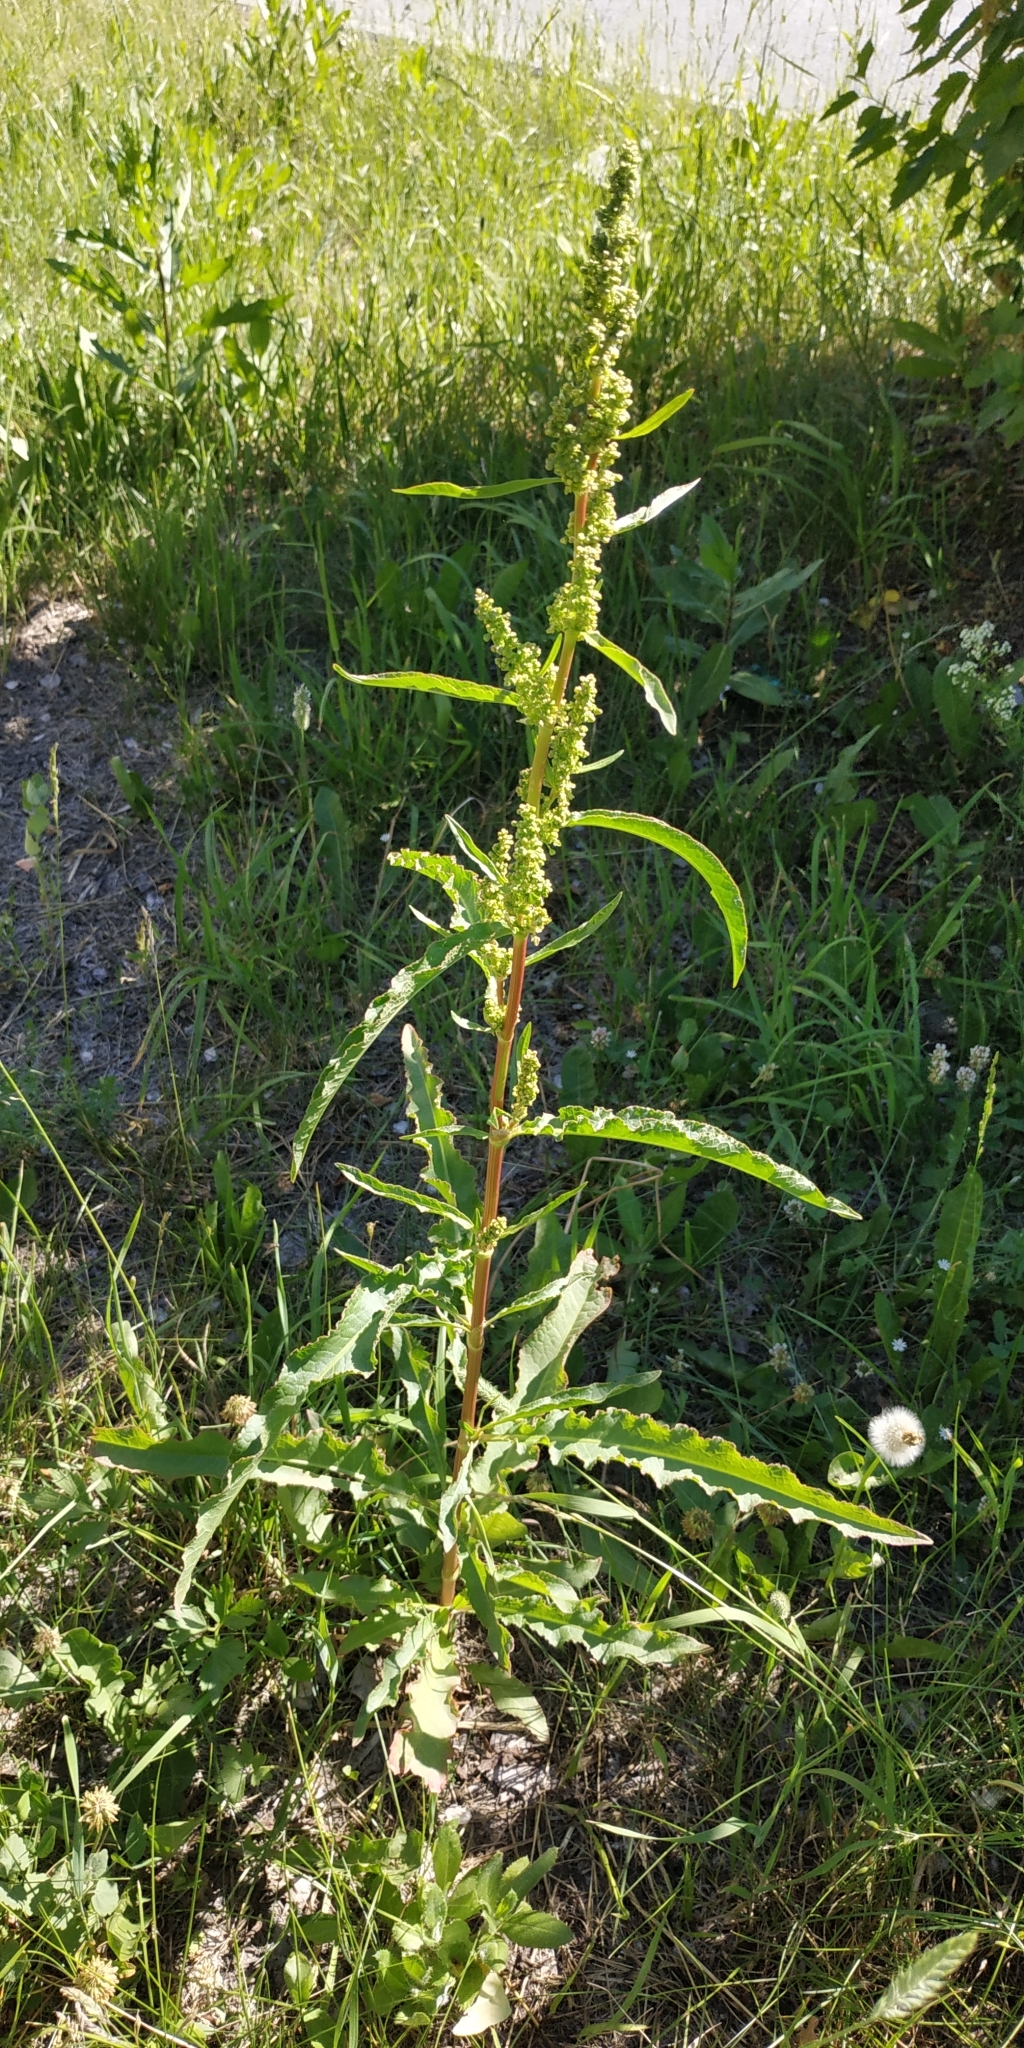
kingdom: Plantae
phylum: Tracheophyta
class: Magnoliopsida
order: Caryophyllales
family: Polygonaceae
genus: Rumex
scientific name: Rumex pseudonatronatus
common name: Field dock
